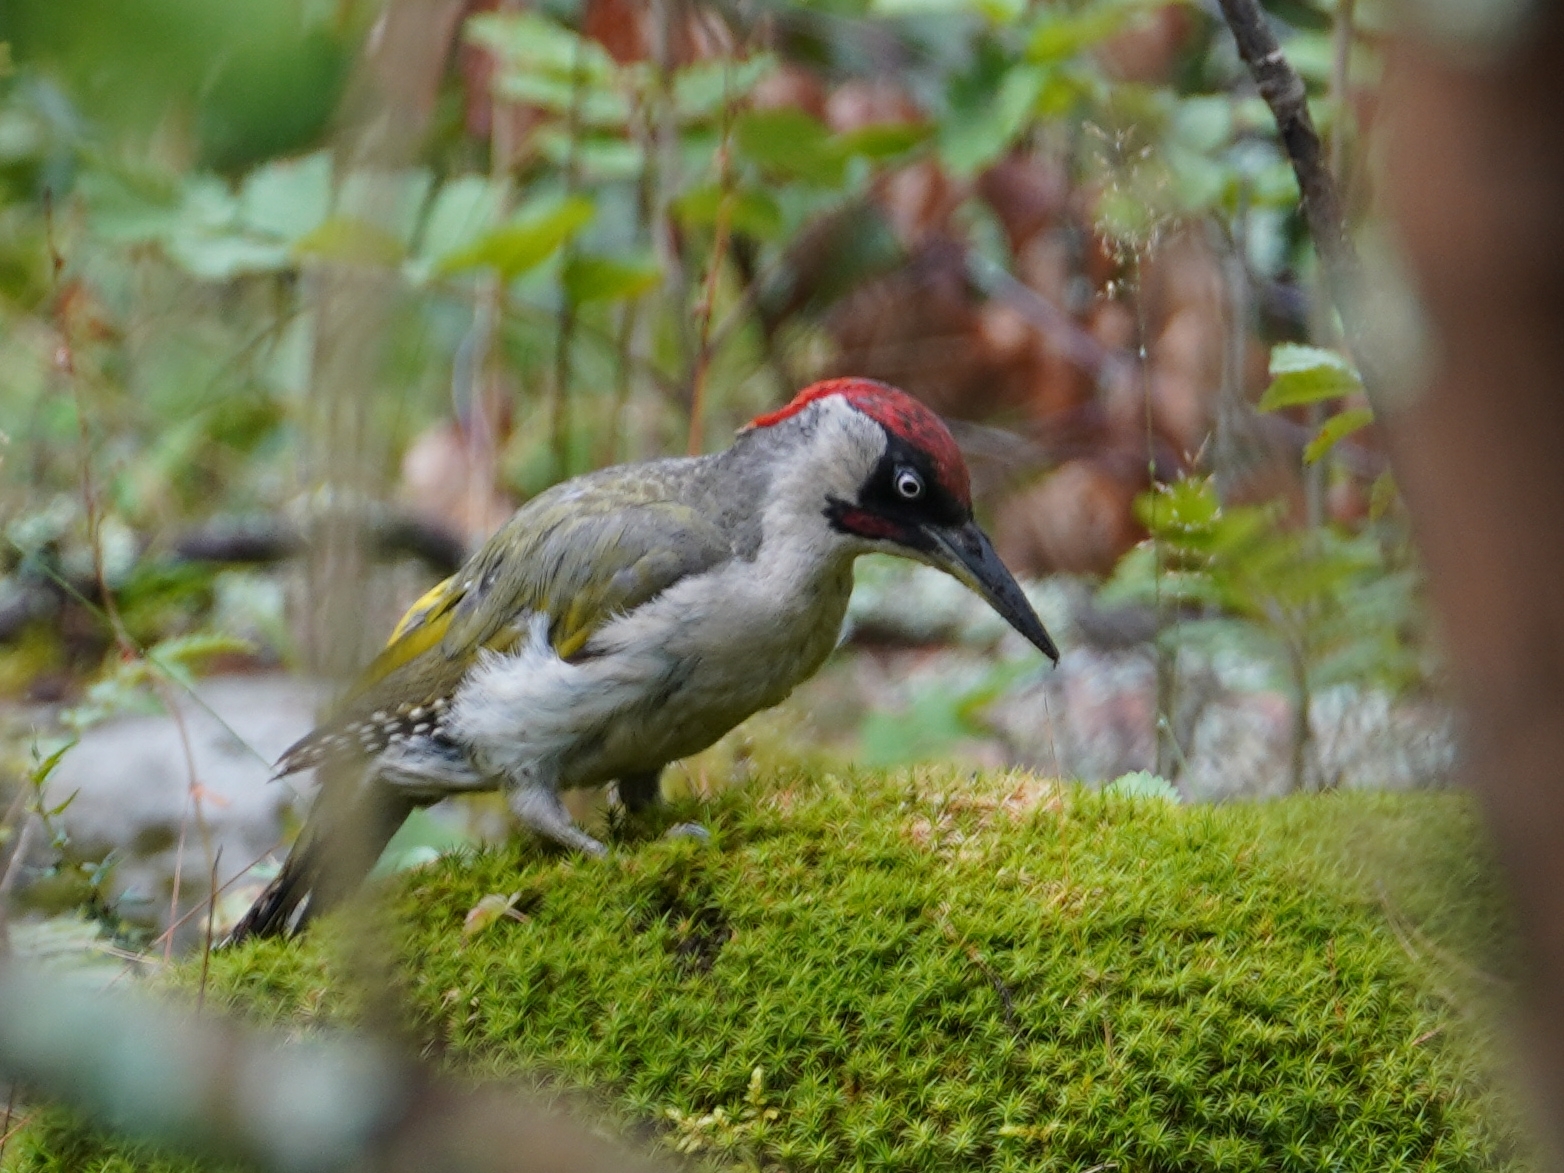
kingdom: Animalia
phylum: Chordata
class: Aves
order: Piciformes
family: Picidae
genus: Picus
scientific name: Picus viridis
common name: European green woodpecker
